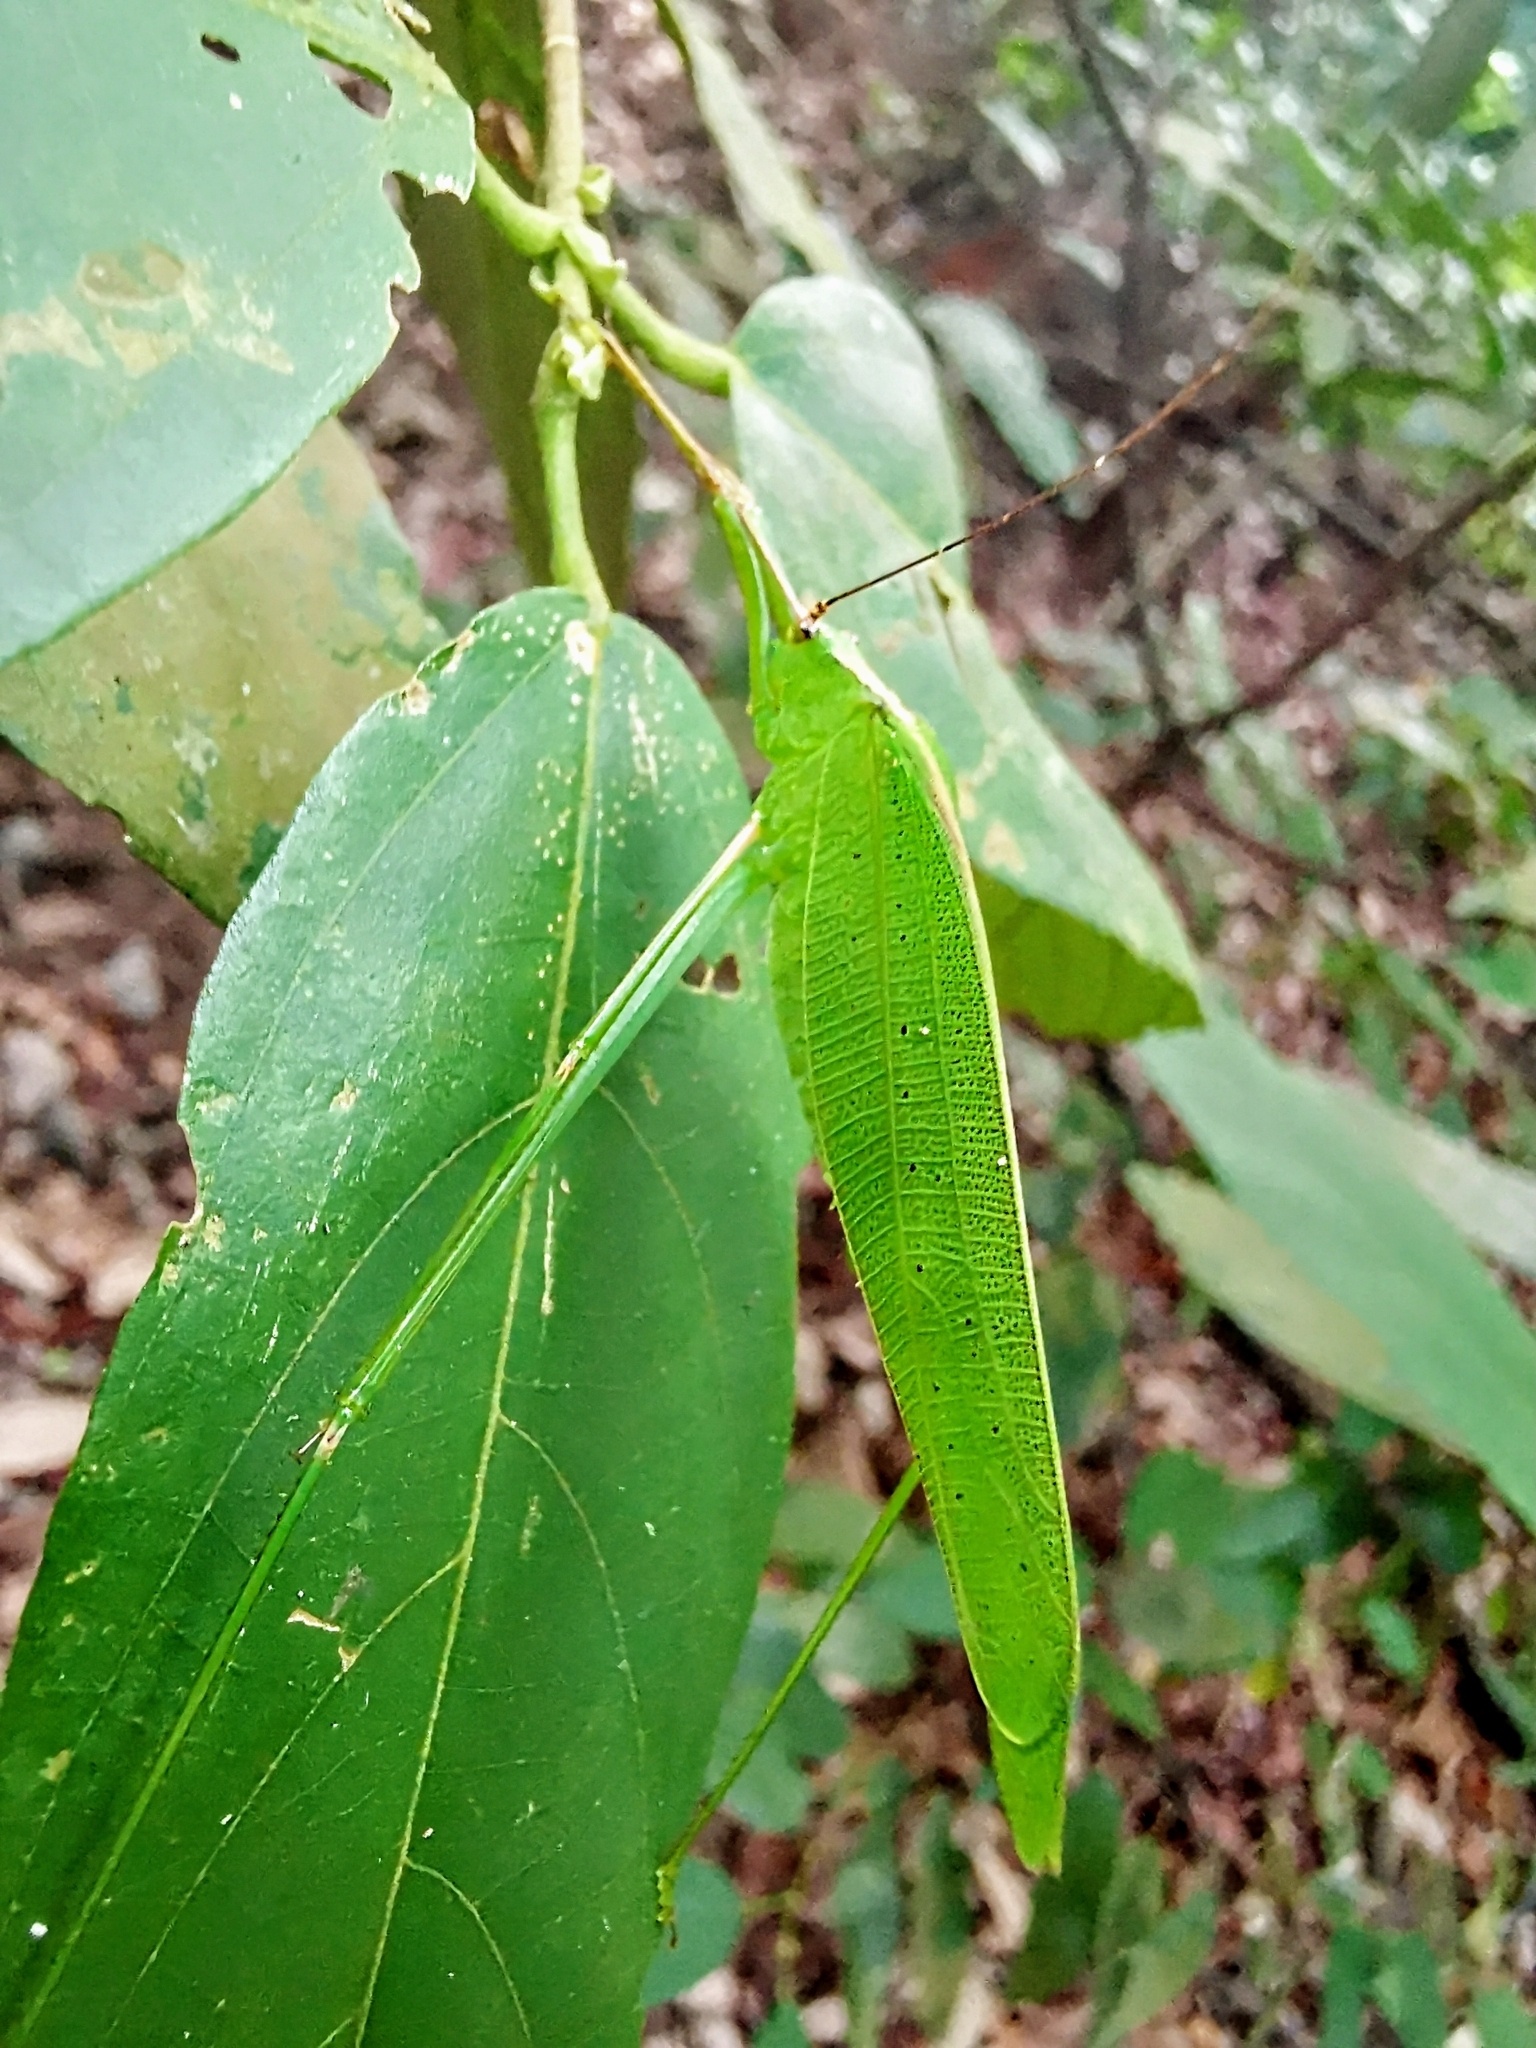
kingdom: Animalia
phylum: Arthropoda
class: Insecta
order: Orthoptera
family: Tettigoniidae
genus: Elimaea
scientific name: Elimaea signata
